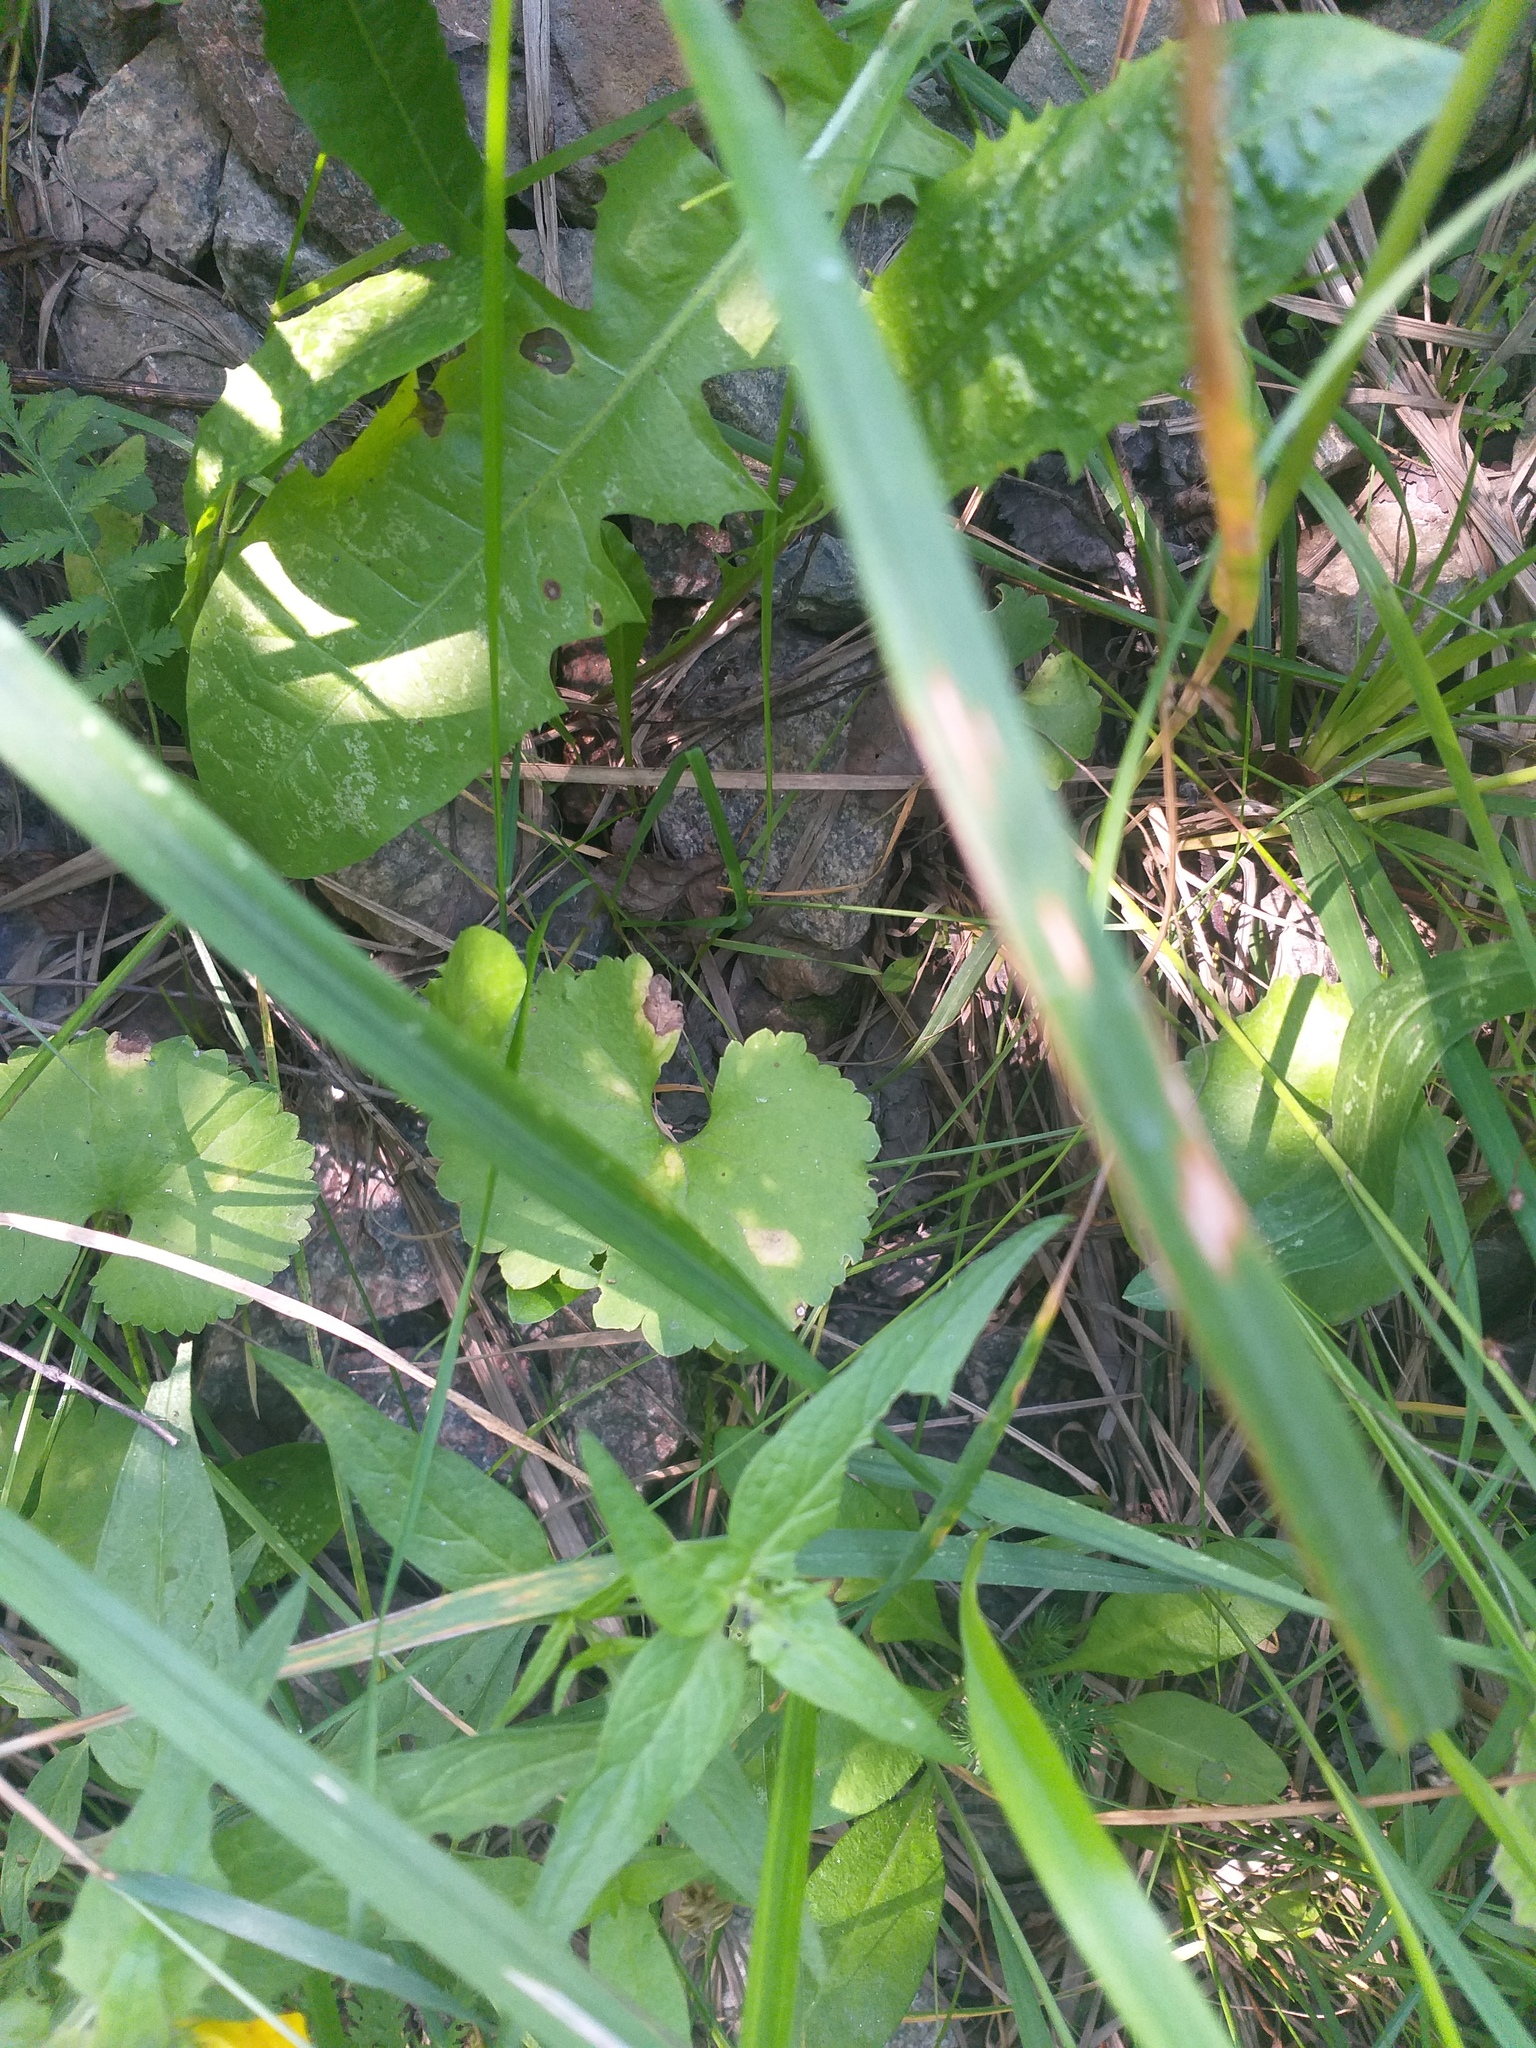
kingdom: Plantae
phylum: Tracheophyta
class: Magnoliopsida
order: Ranunculales
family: Ranunculaceae
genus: Ranunculus
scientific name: Ranunculus cassubicus
